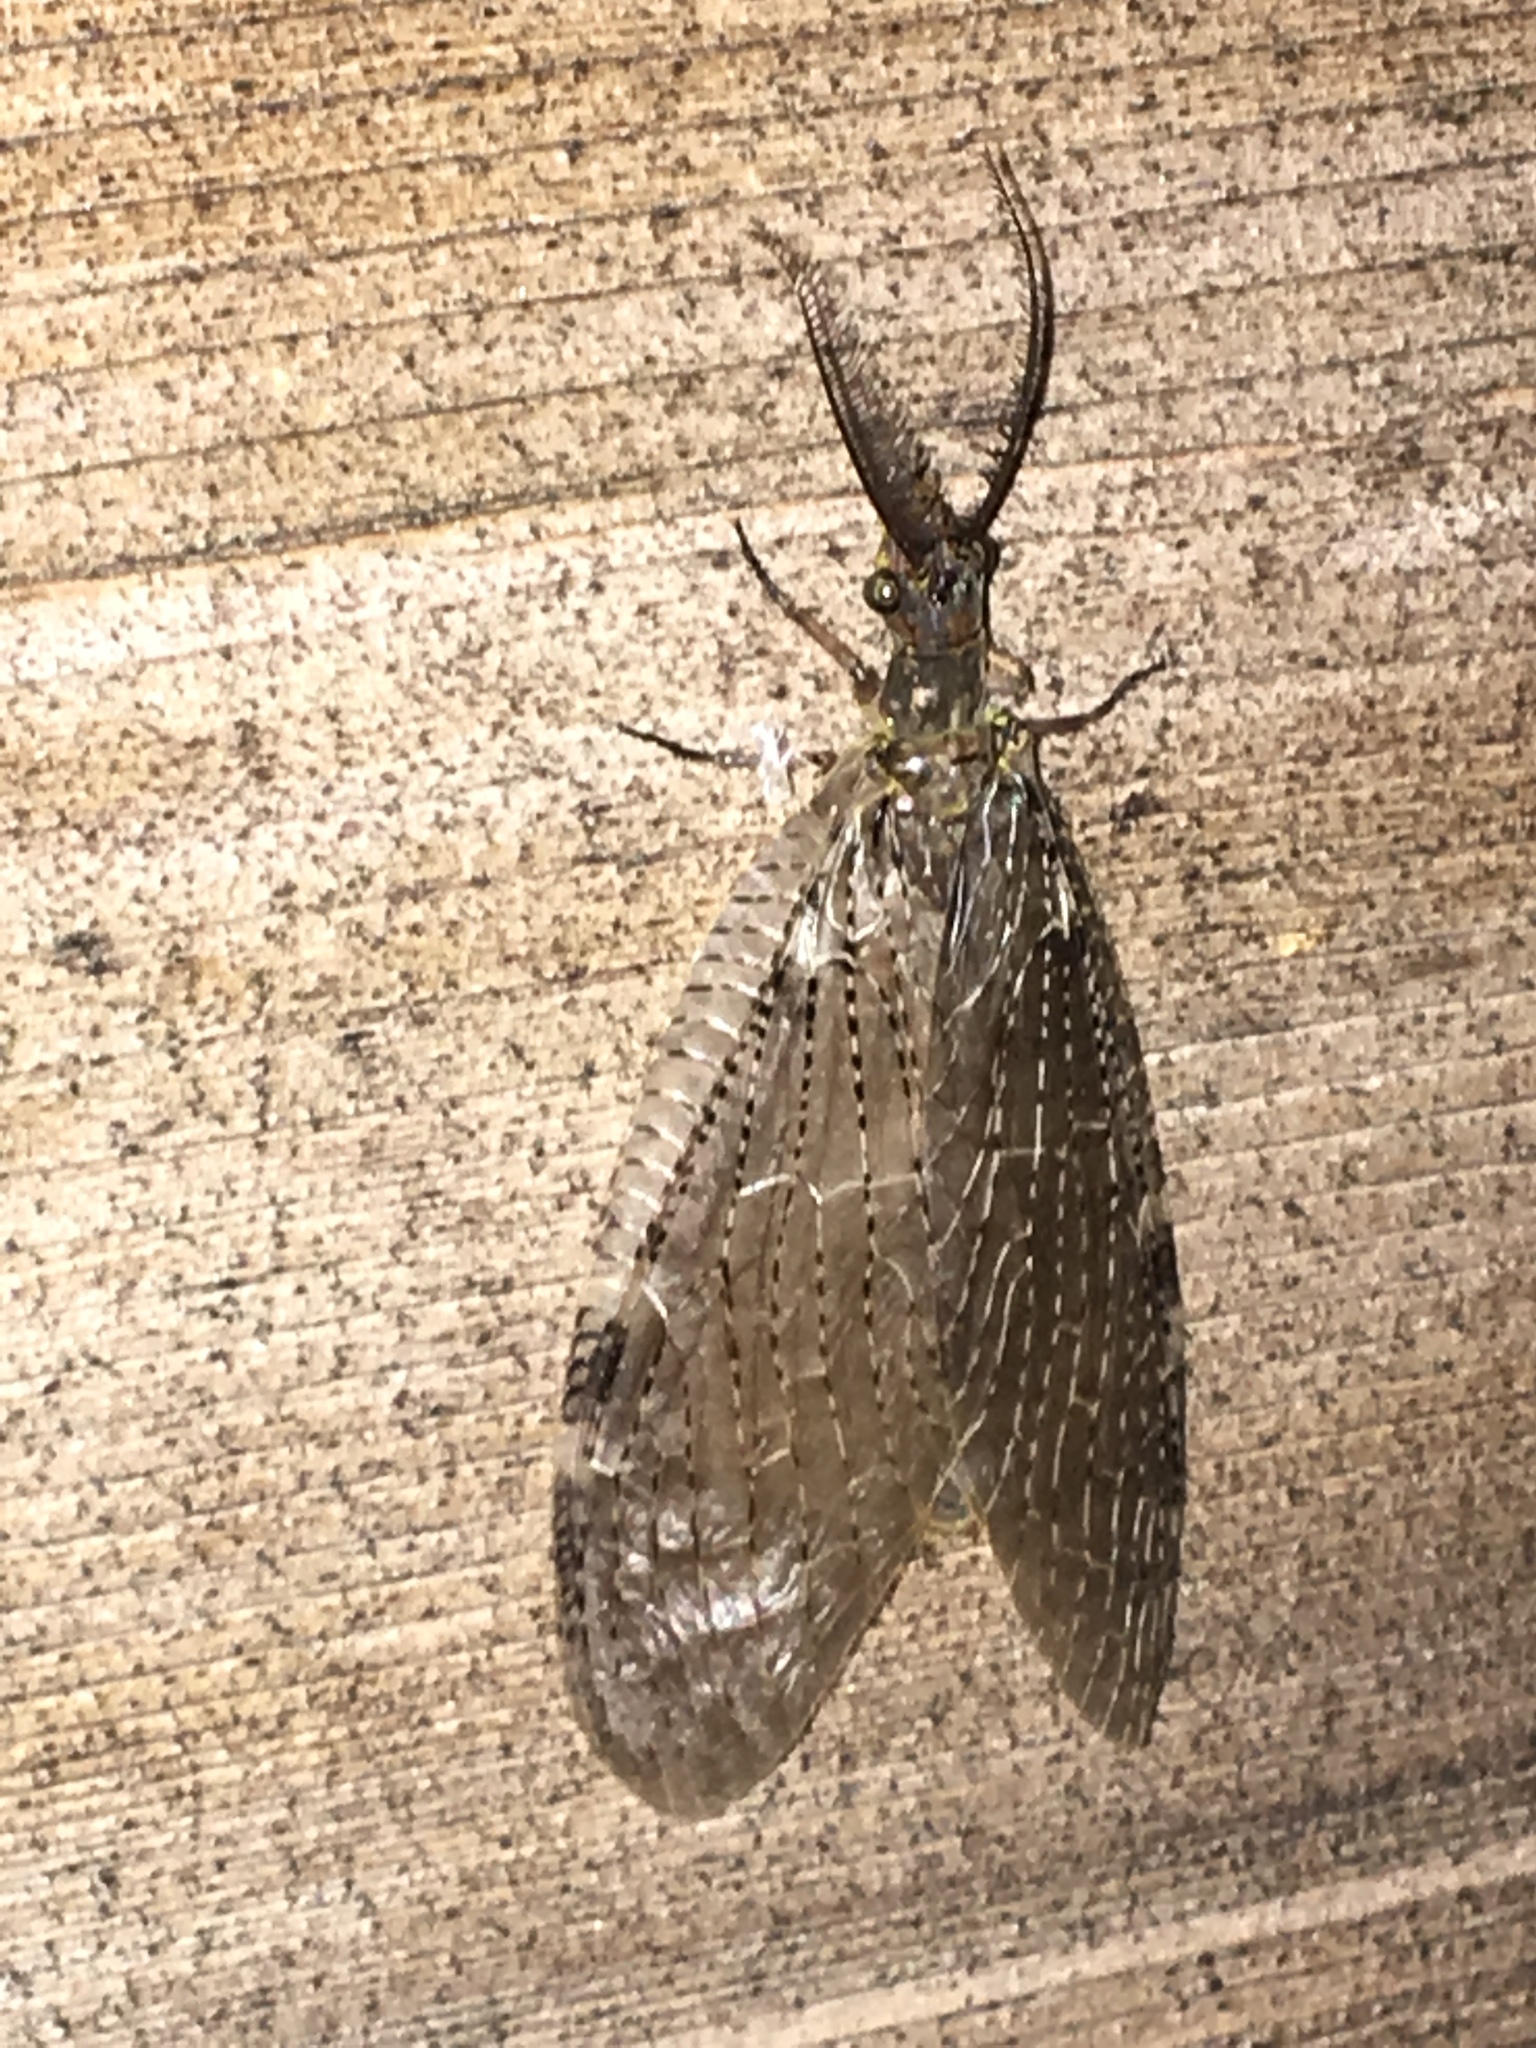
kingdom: Animalia
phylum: Arthropoda
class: Insecta
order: Megaloptera
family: Corydalidae
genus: Chauliodes
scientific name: Chauliodes pectinicornis
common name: Summer fishfly
